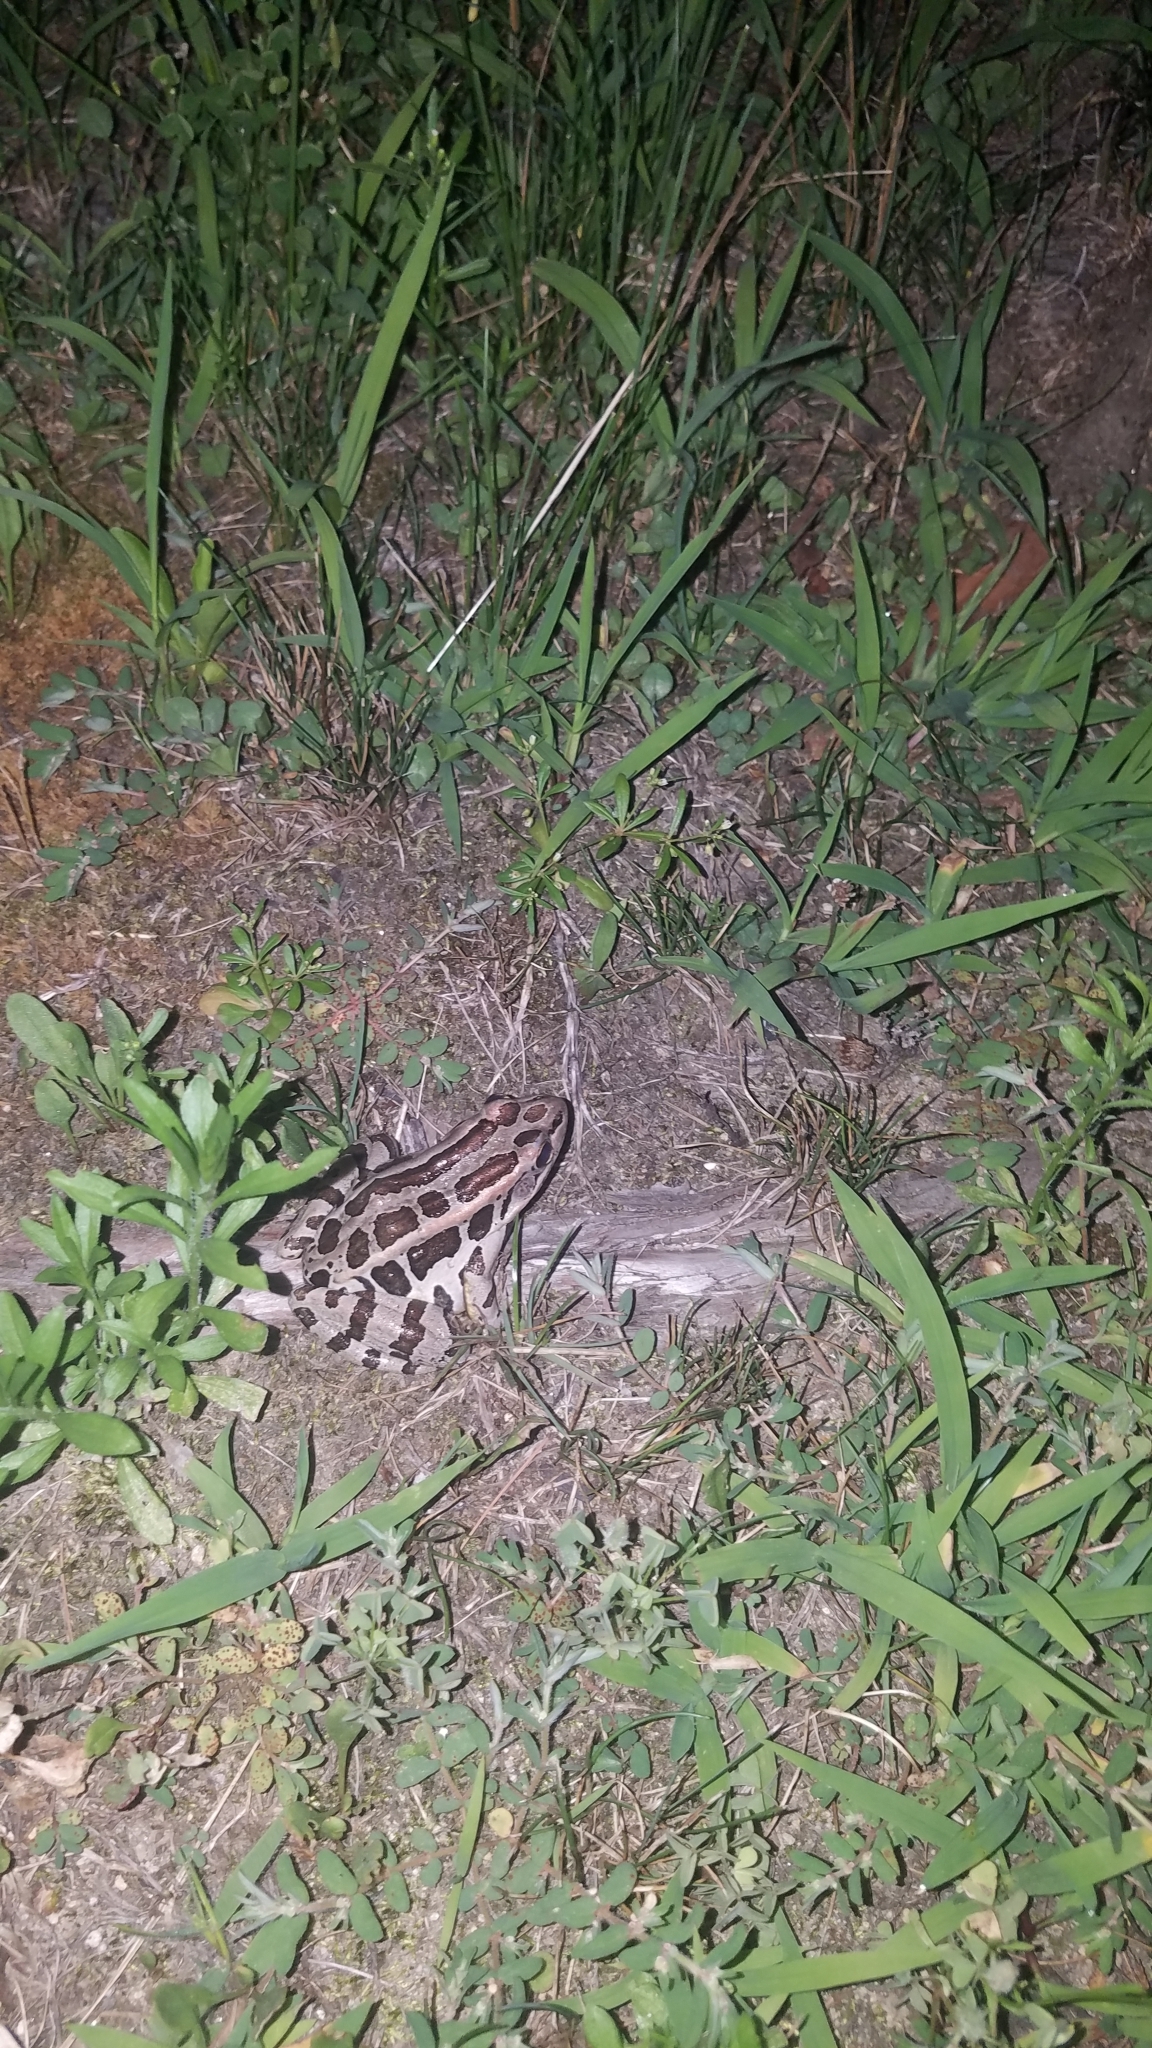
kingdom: Animalia
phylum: Chordata
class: Amphibia
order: Anura
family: Ranidae
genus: Lithobates
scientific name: Lithobates palustris
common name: Pickerel frog
